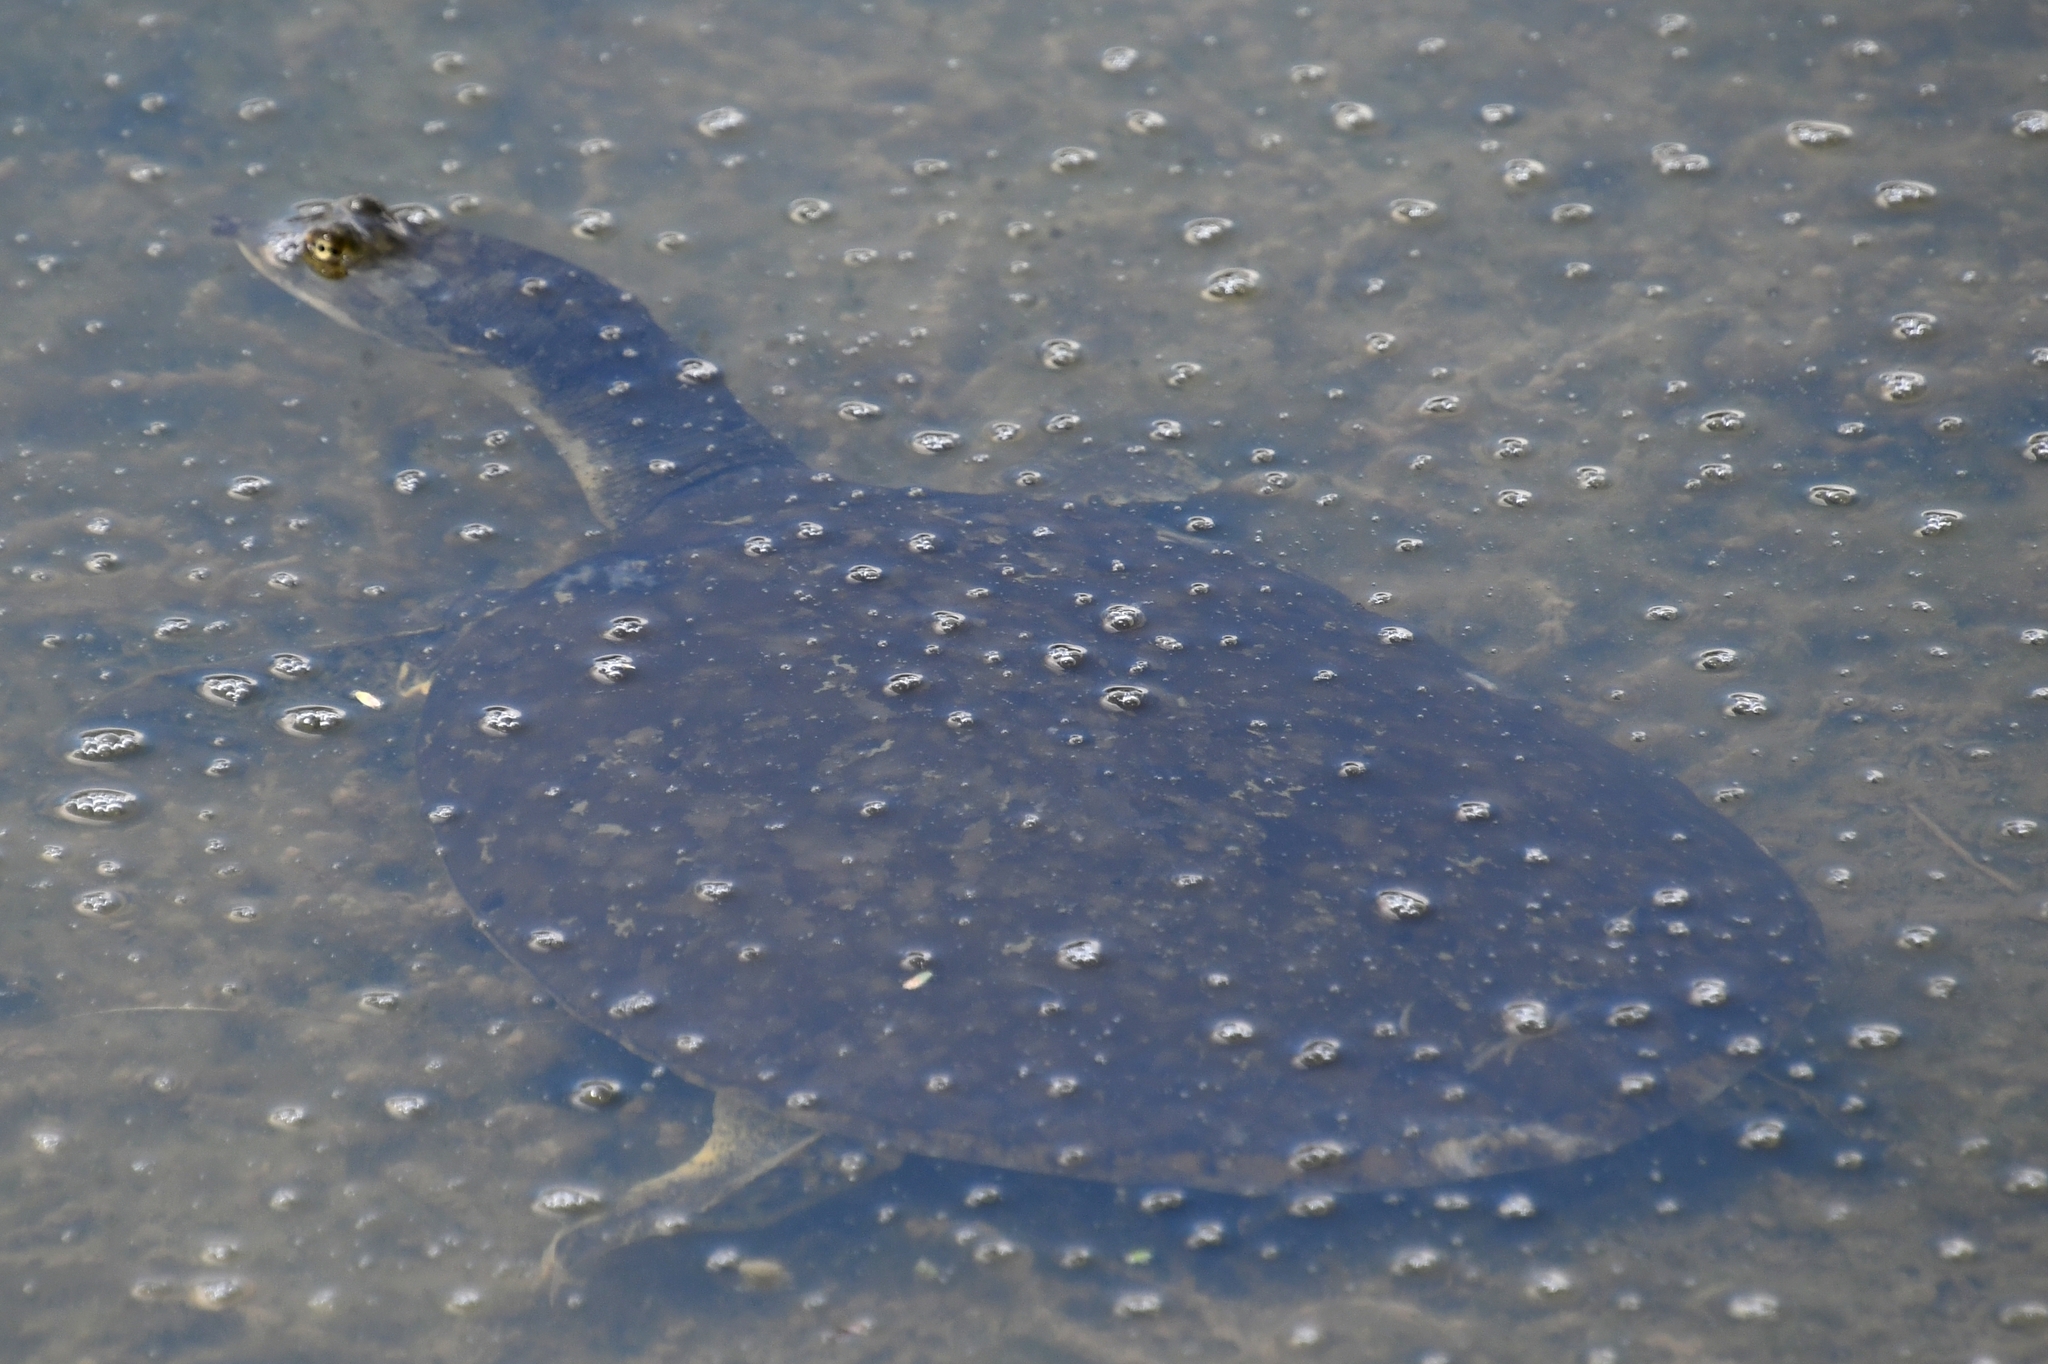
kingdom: Animalia
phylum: Chordata
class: Testudines
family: Trionychidae
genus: Apalone
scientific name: Apalone spinifera
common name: Spiny softshell turtle
